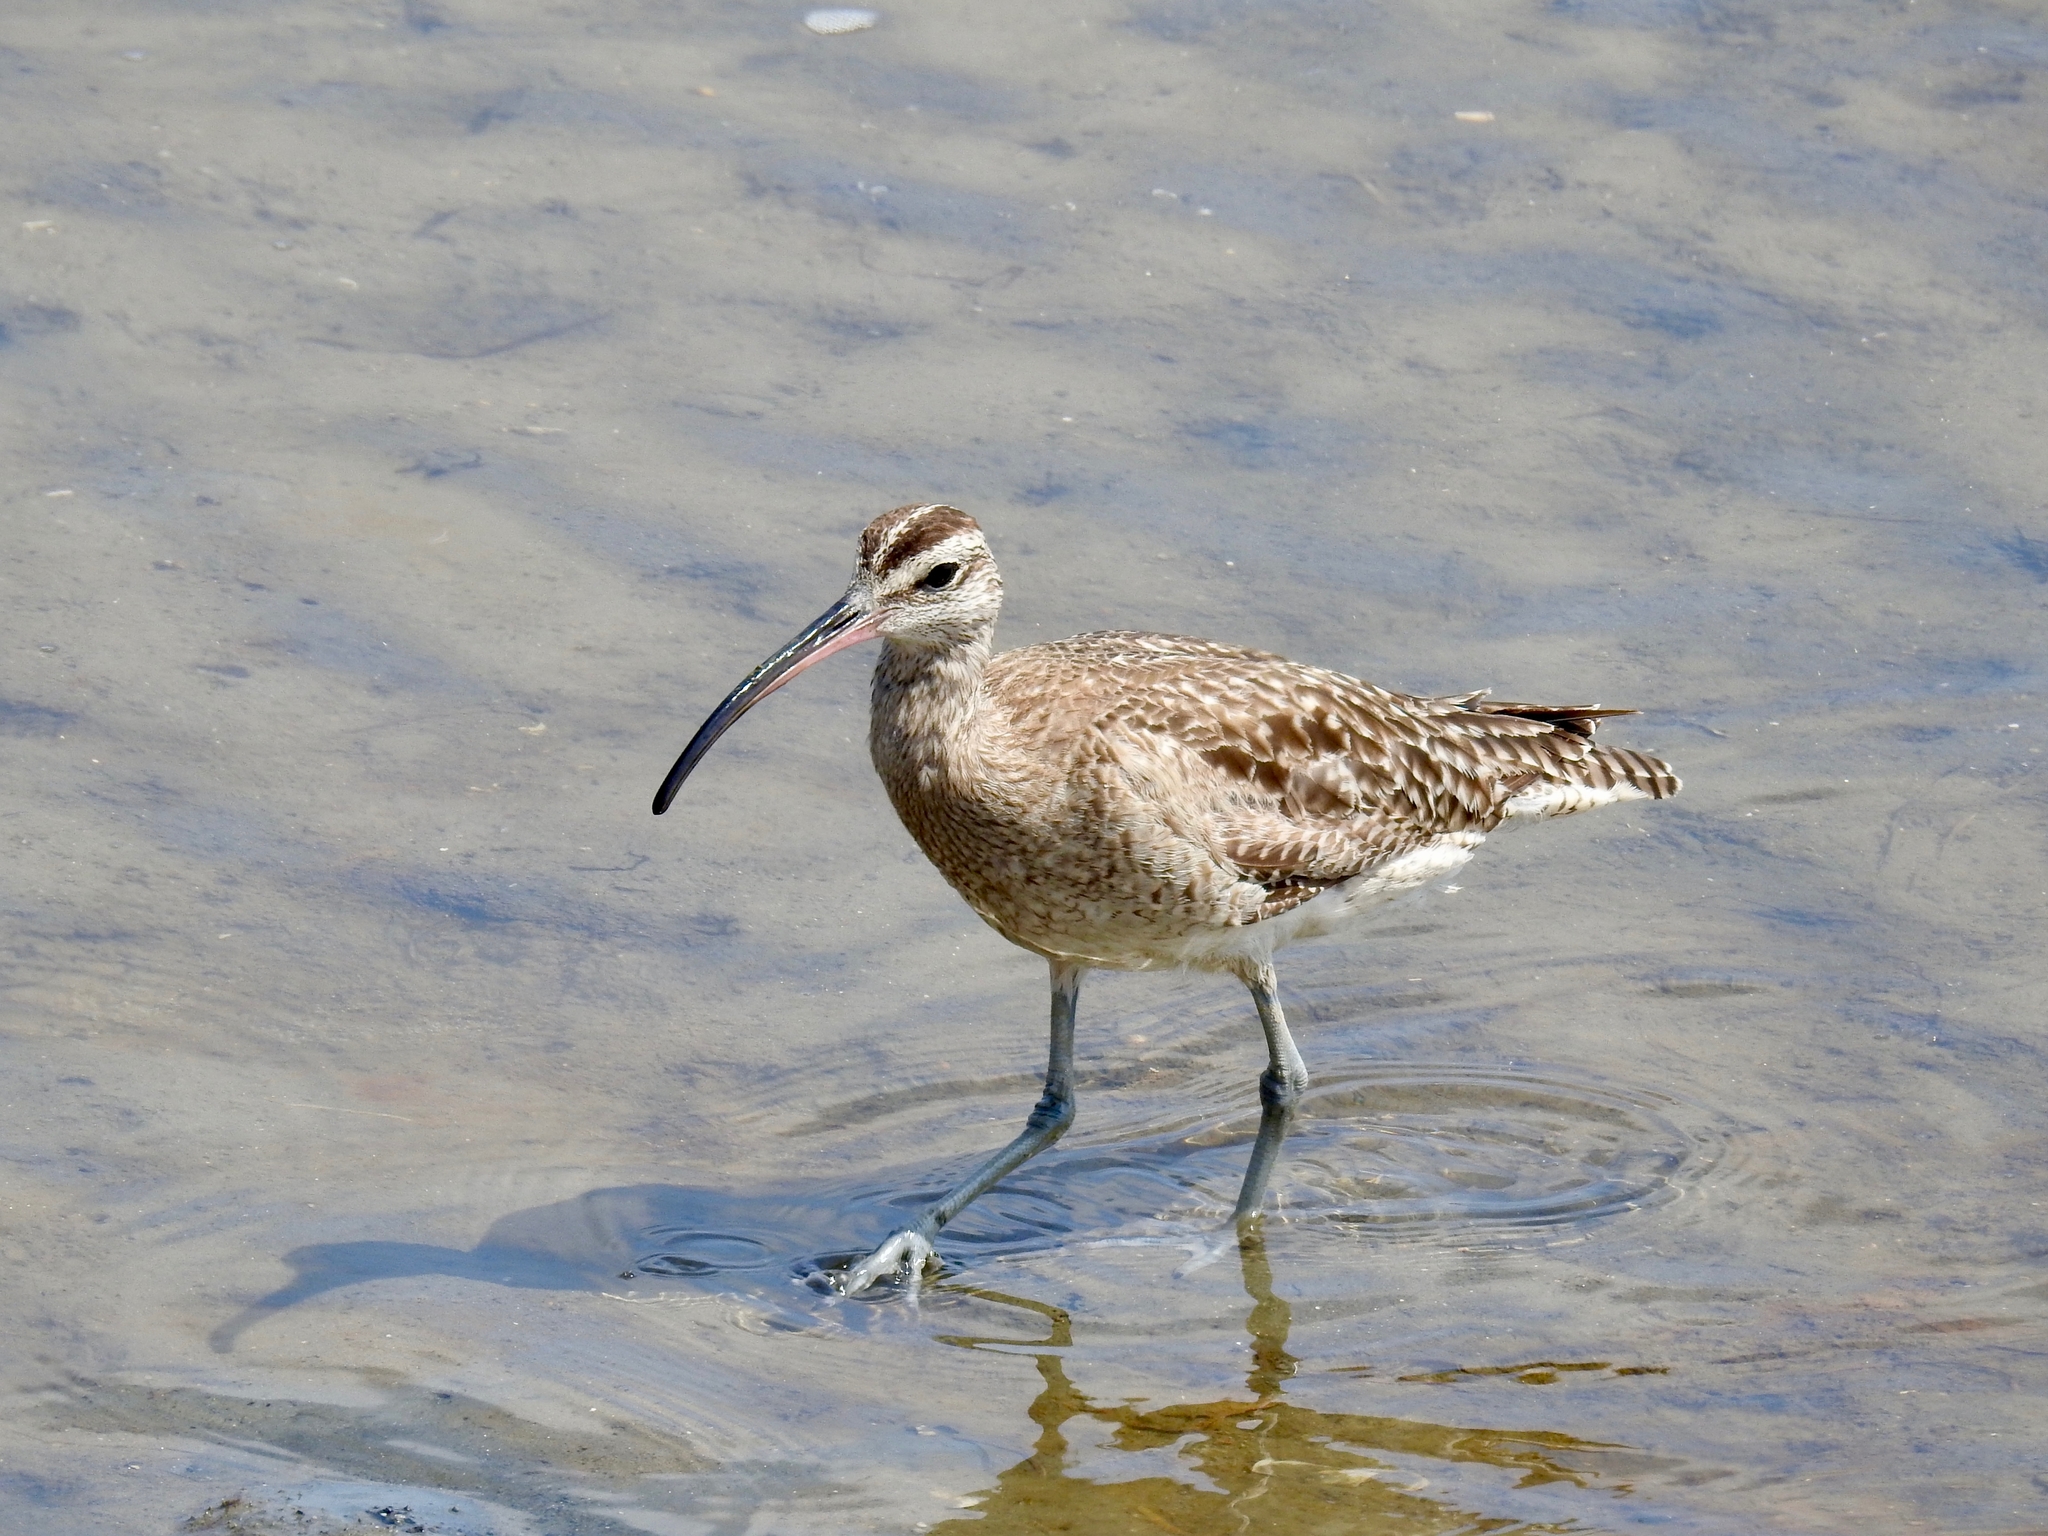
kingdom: Animalia
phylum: Chordata
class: Aves
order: Charadriiformes
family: Scolopacidae
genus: Numenius
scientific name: Numenius phaeopus
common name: Whimbrel
